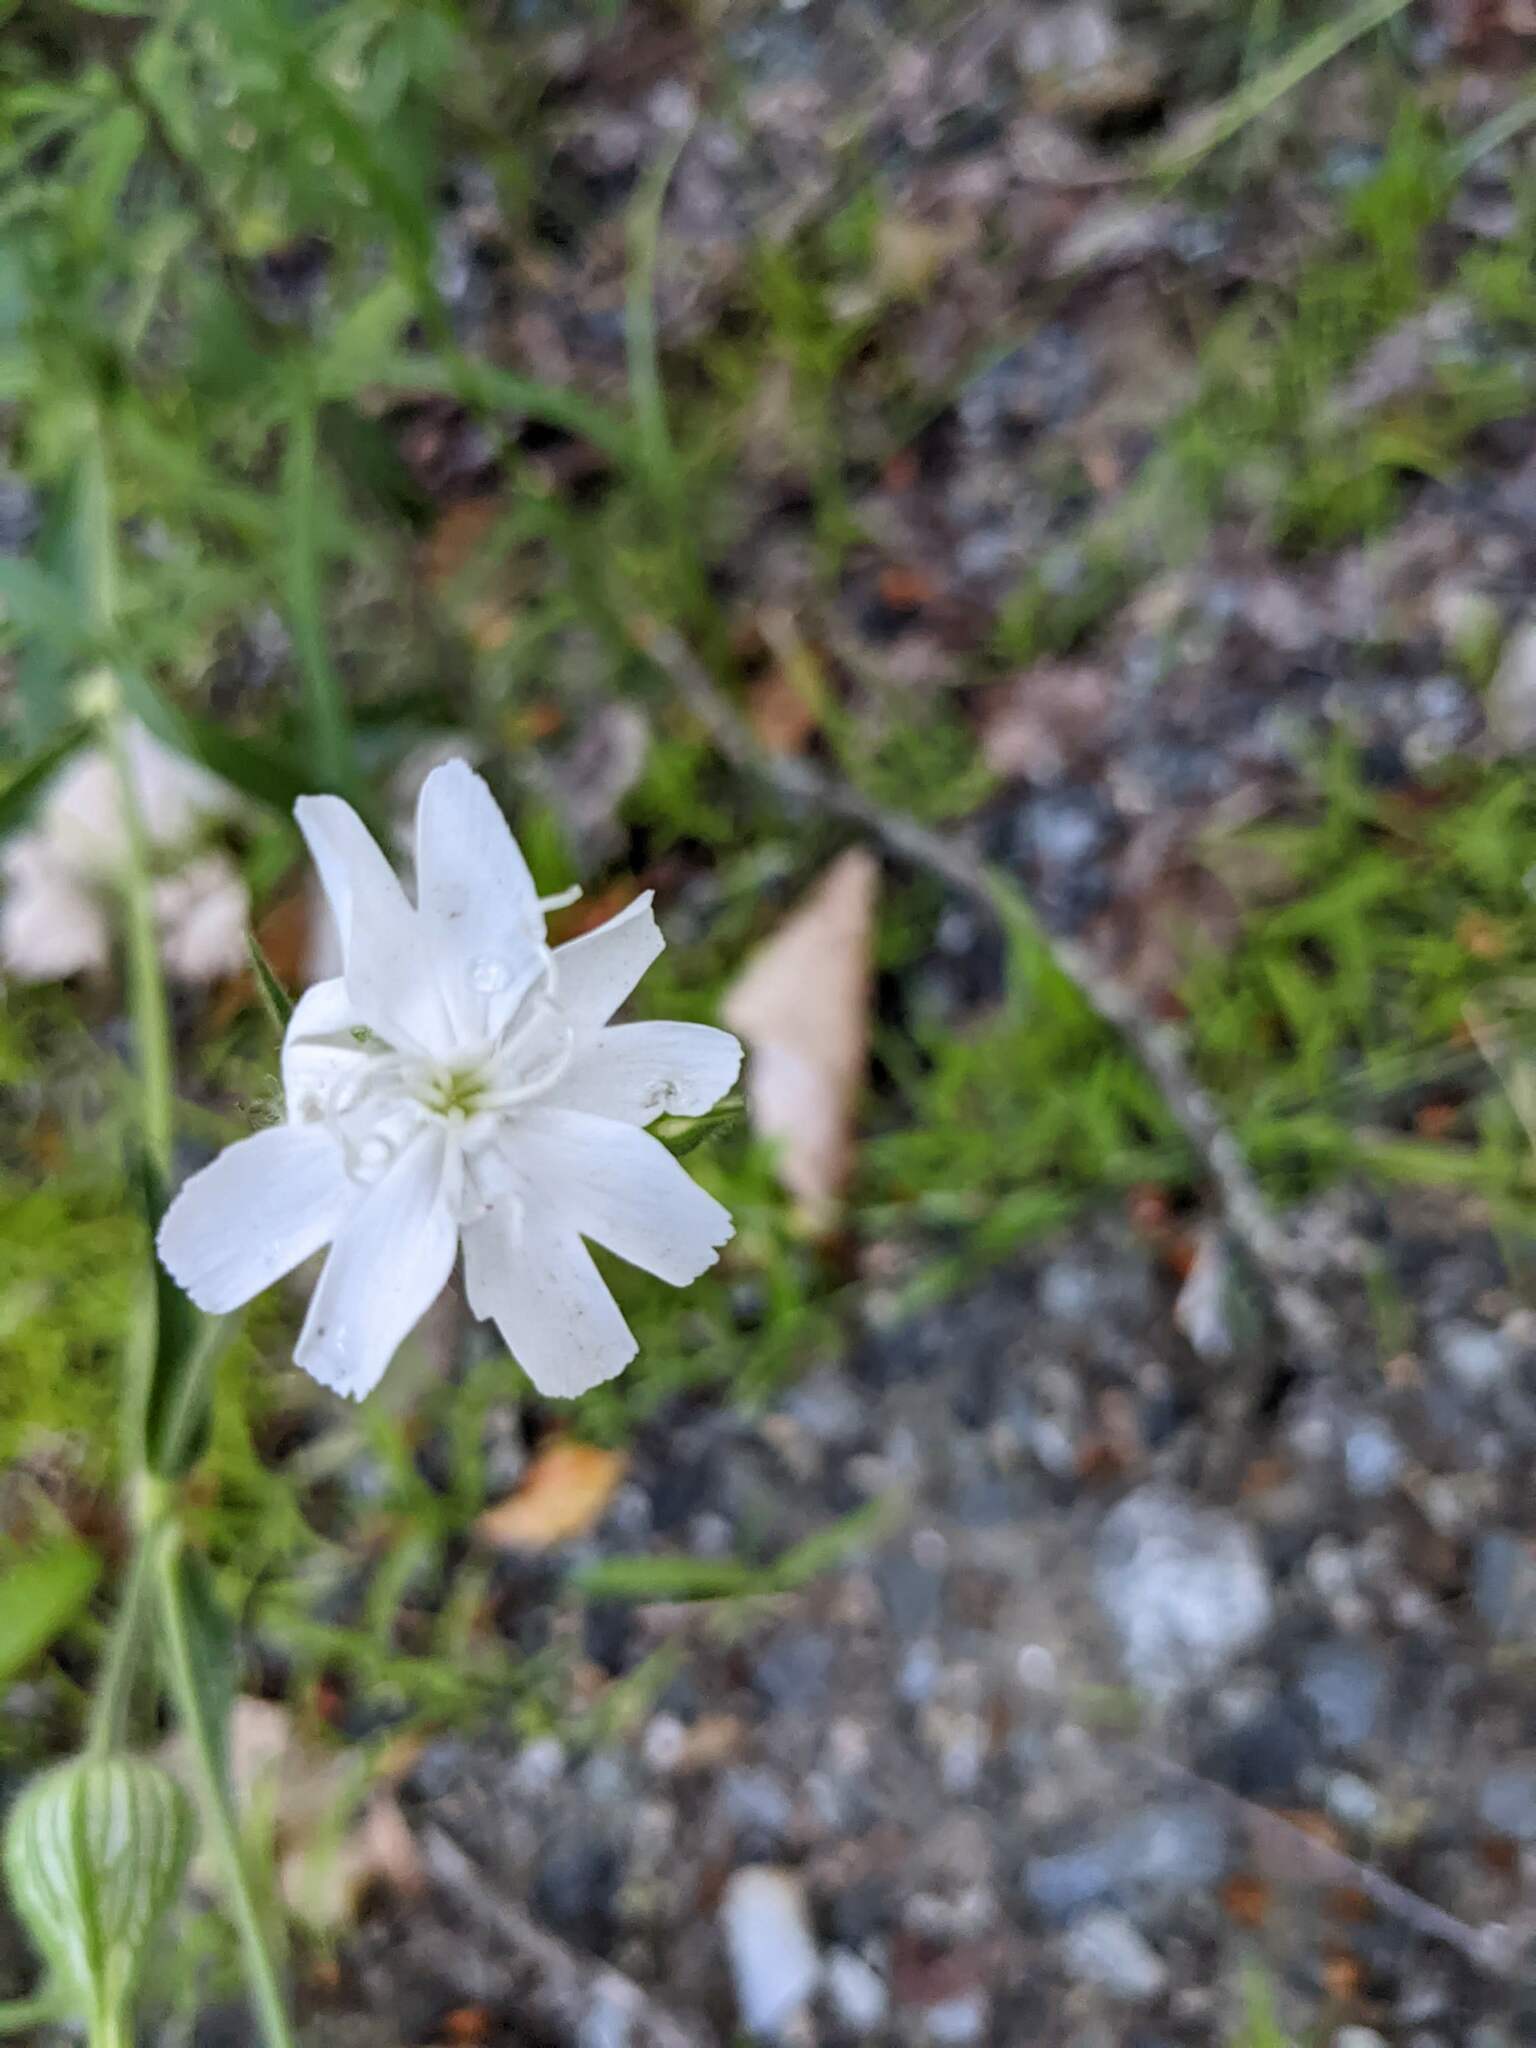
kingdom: Plantae
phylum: Tracheophyta
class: Magnoliopsida
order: Caryophyllales
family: Caryophyllaceae
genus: Silene
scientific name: Silene latifolia
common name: White campion
